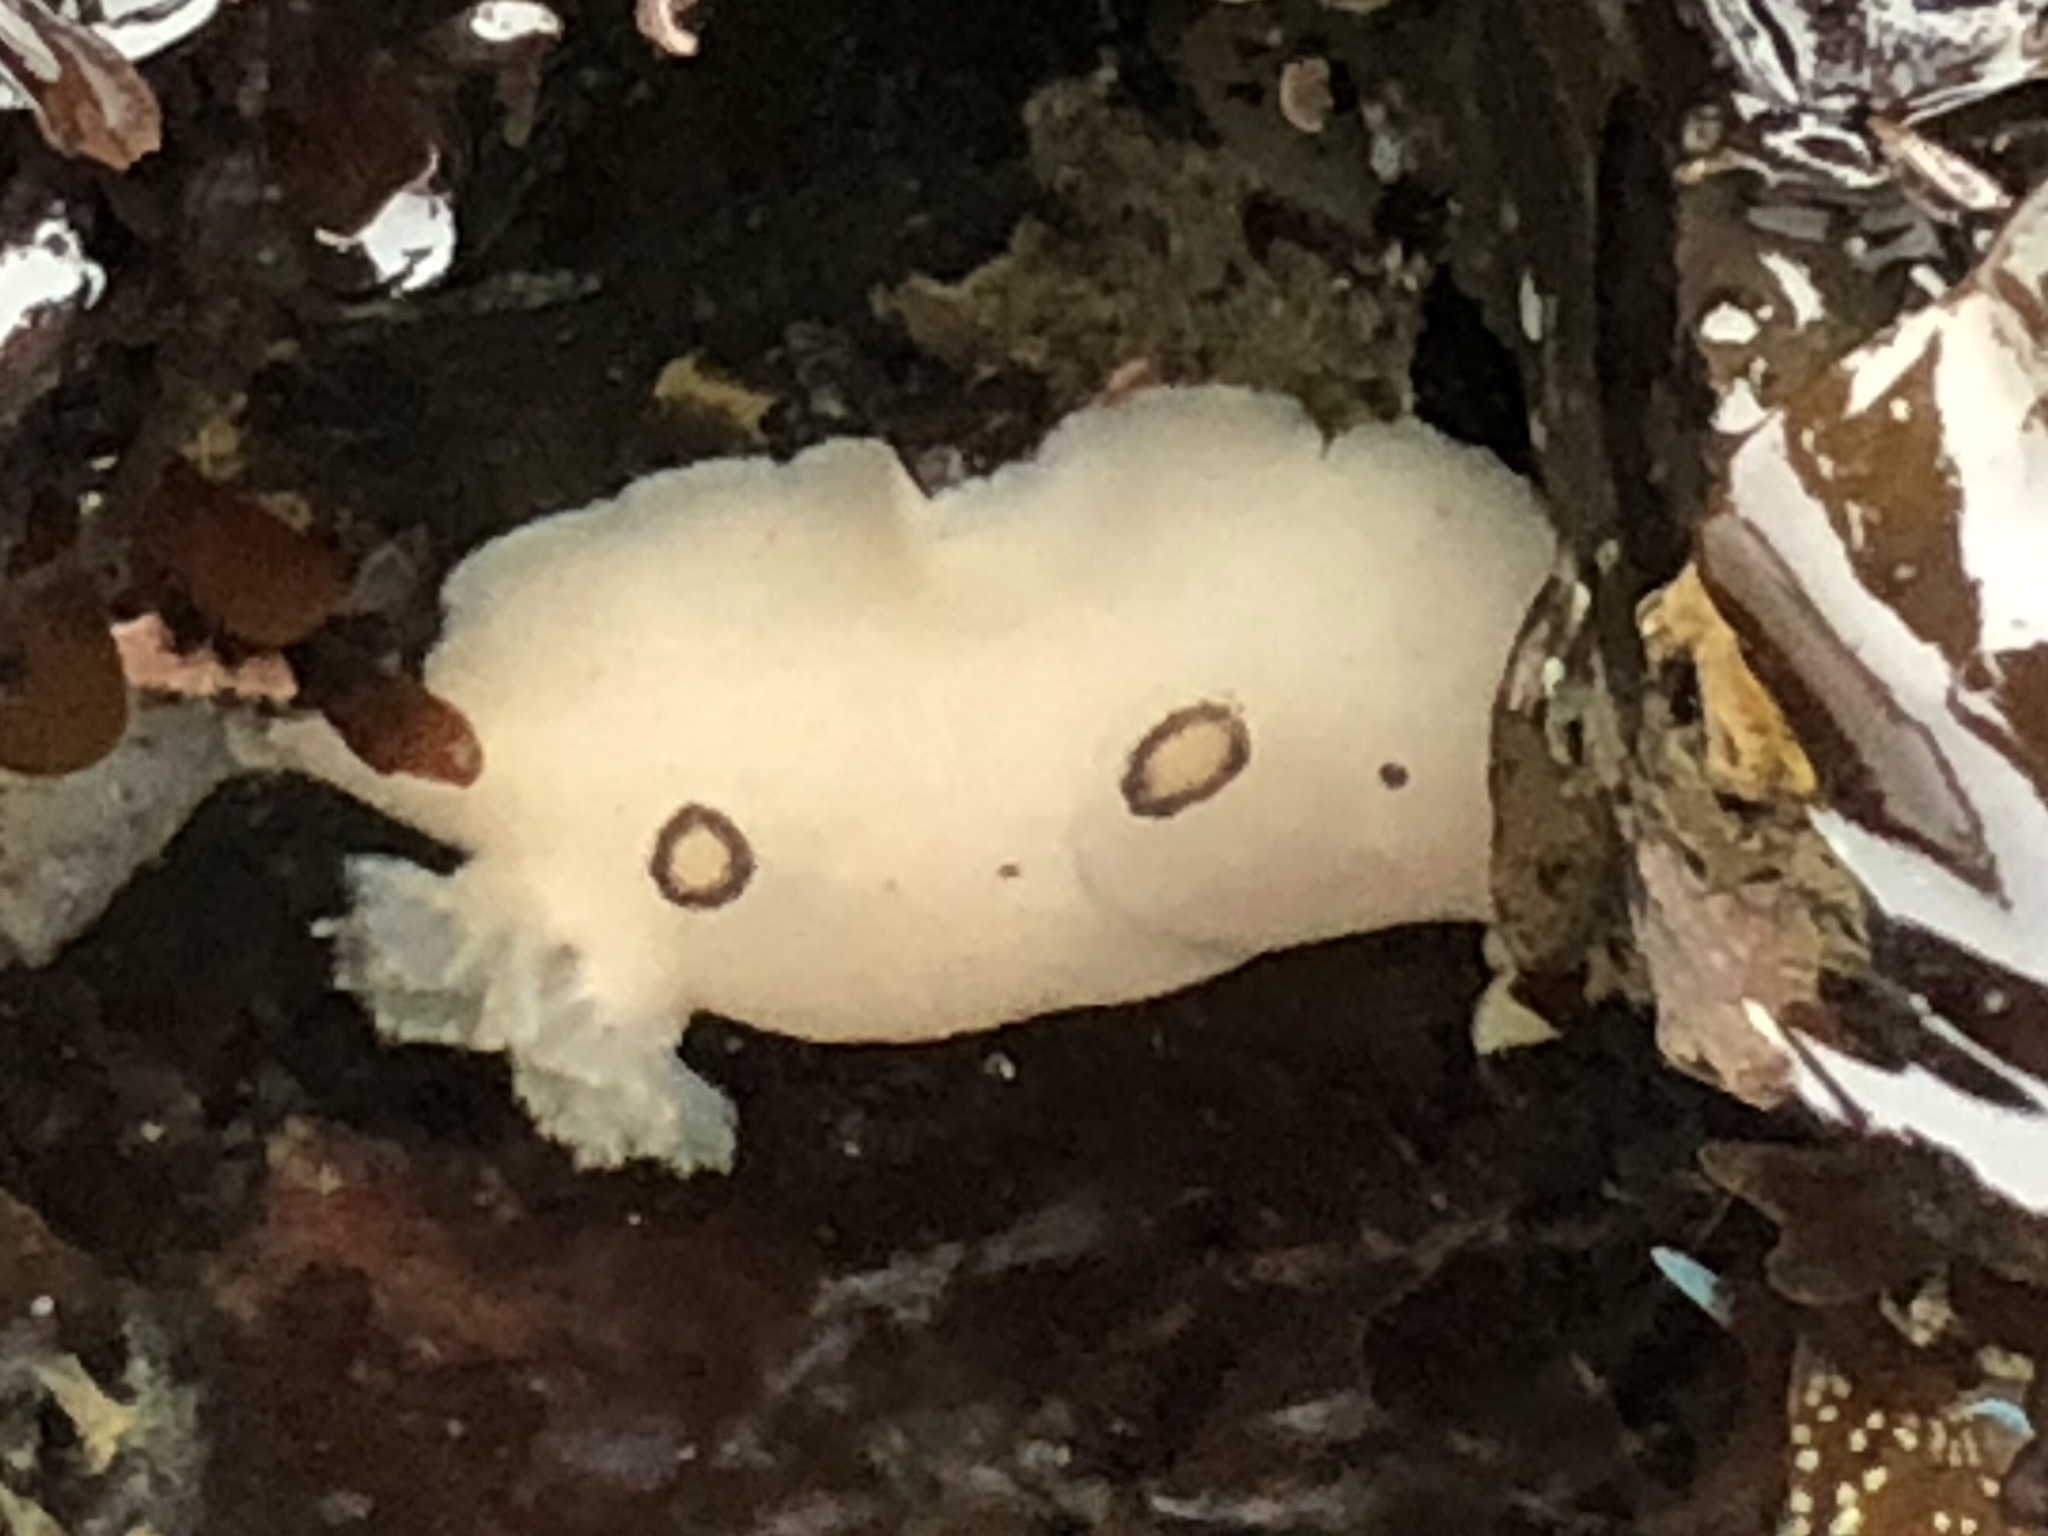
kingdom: Animalia
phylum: Mollusca
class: Gastropoda
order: Nudibranchia
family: Discodorididae
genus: Diaulula
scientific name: Diaulula sandiegensis
